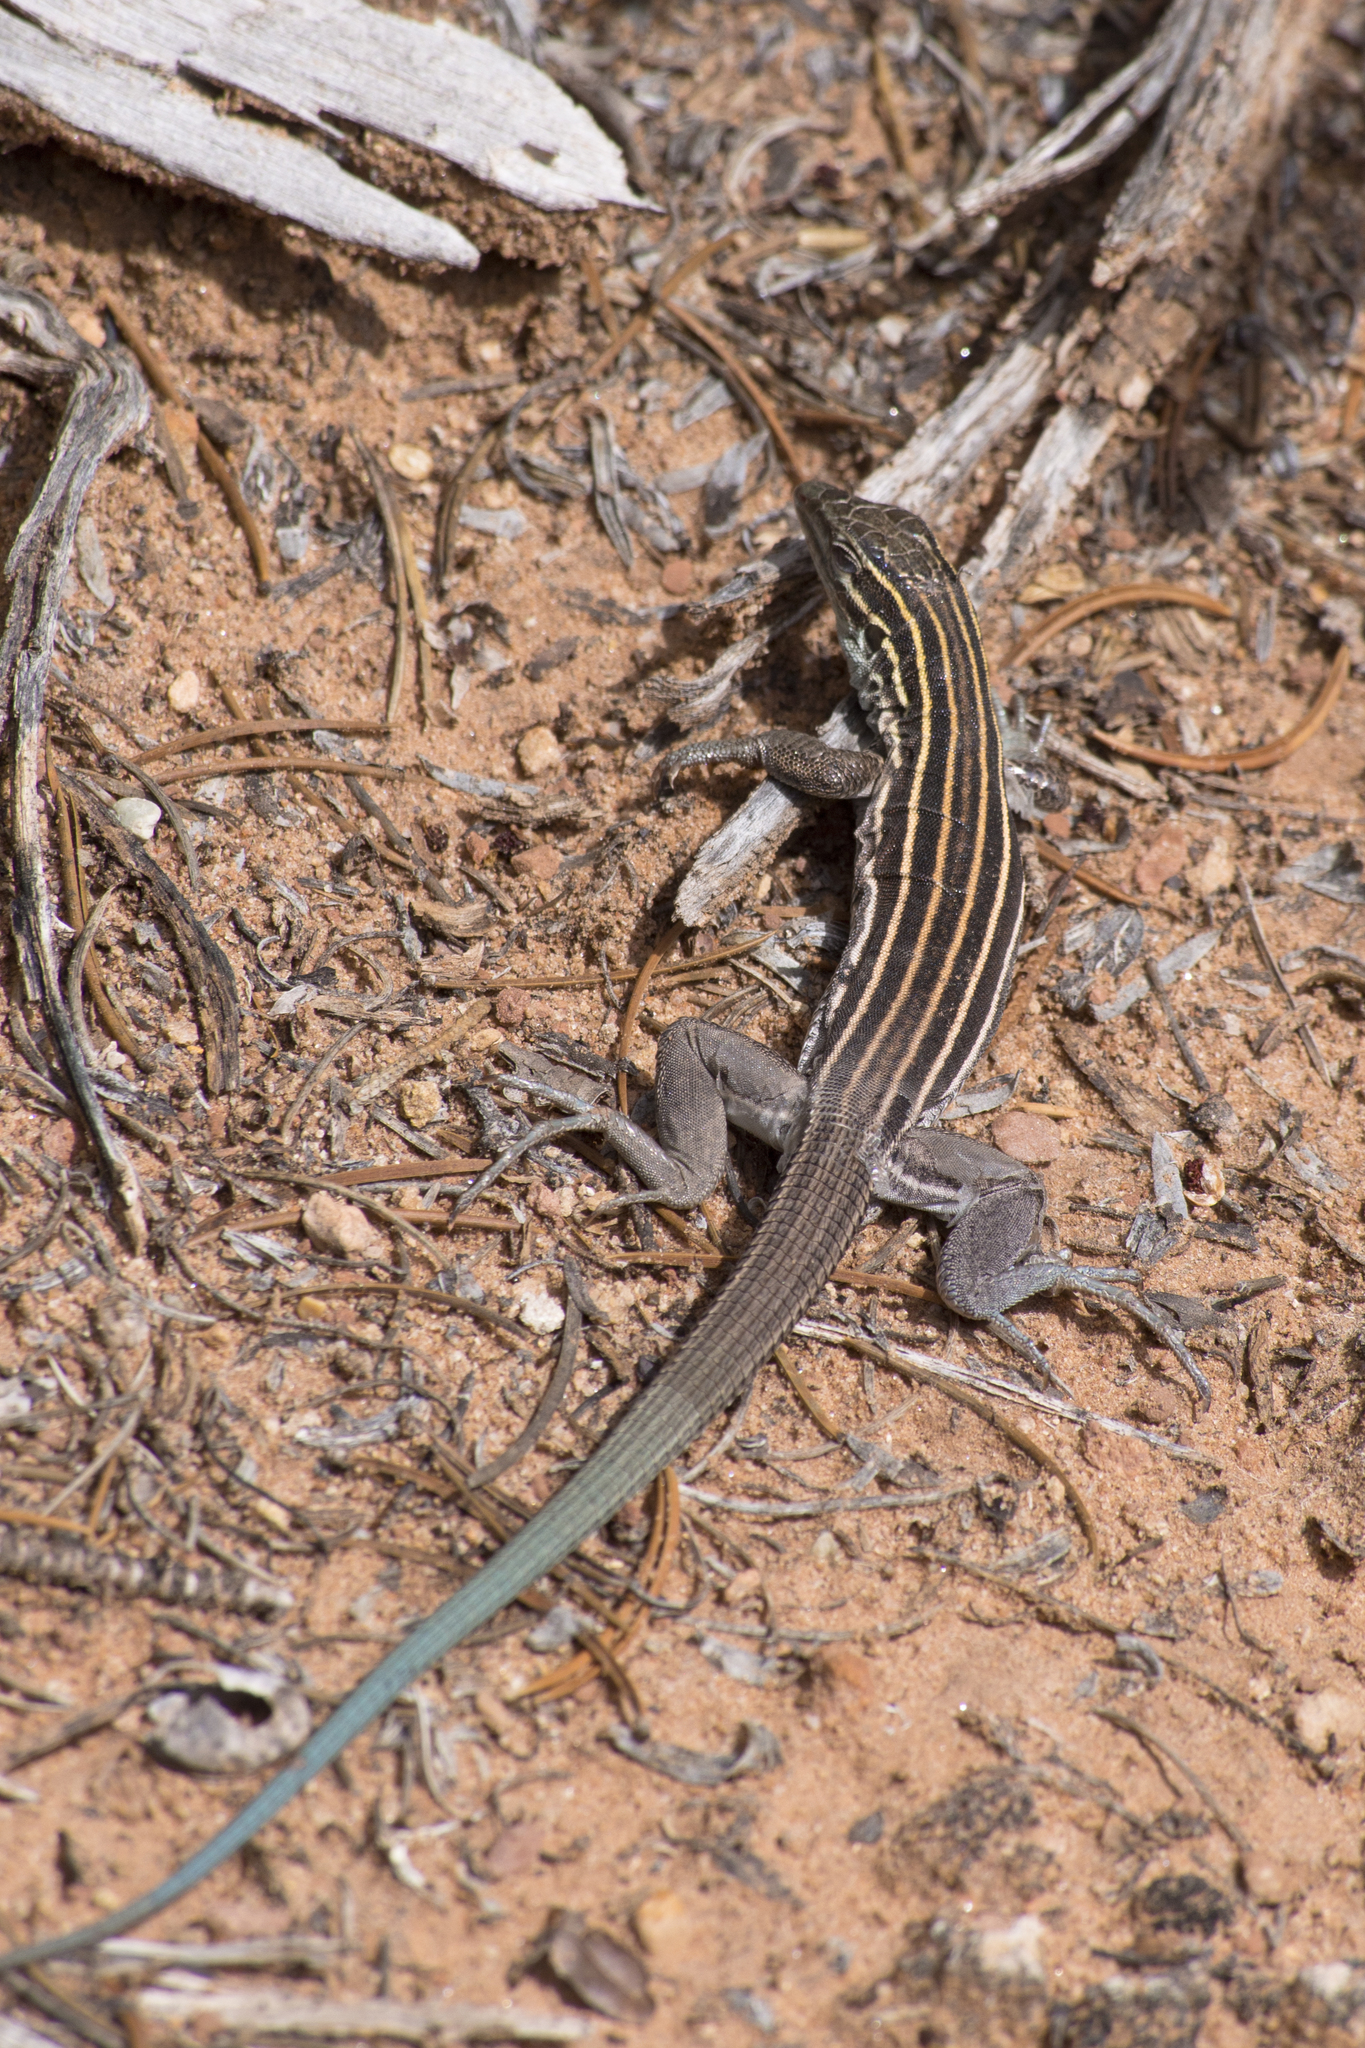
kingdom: Animalia
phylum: Chordata
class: Squamata
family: Teiidae
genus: Aspidoscelis
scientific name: Aspidoscelis velox
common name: Plateau striped whiptail
